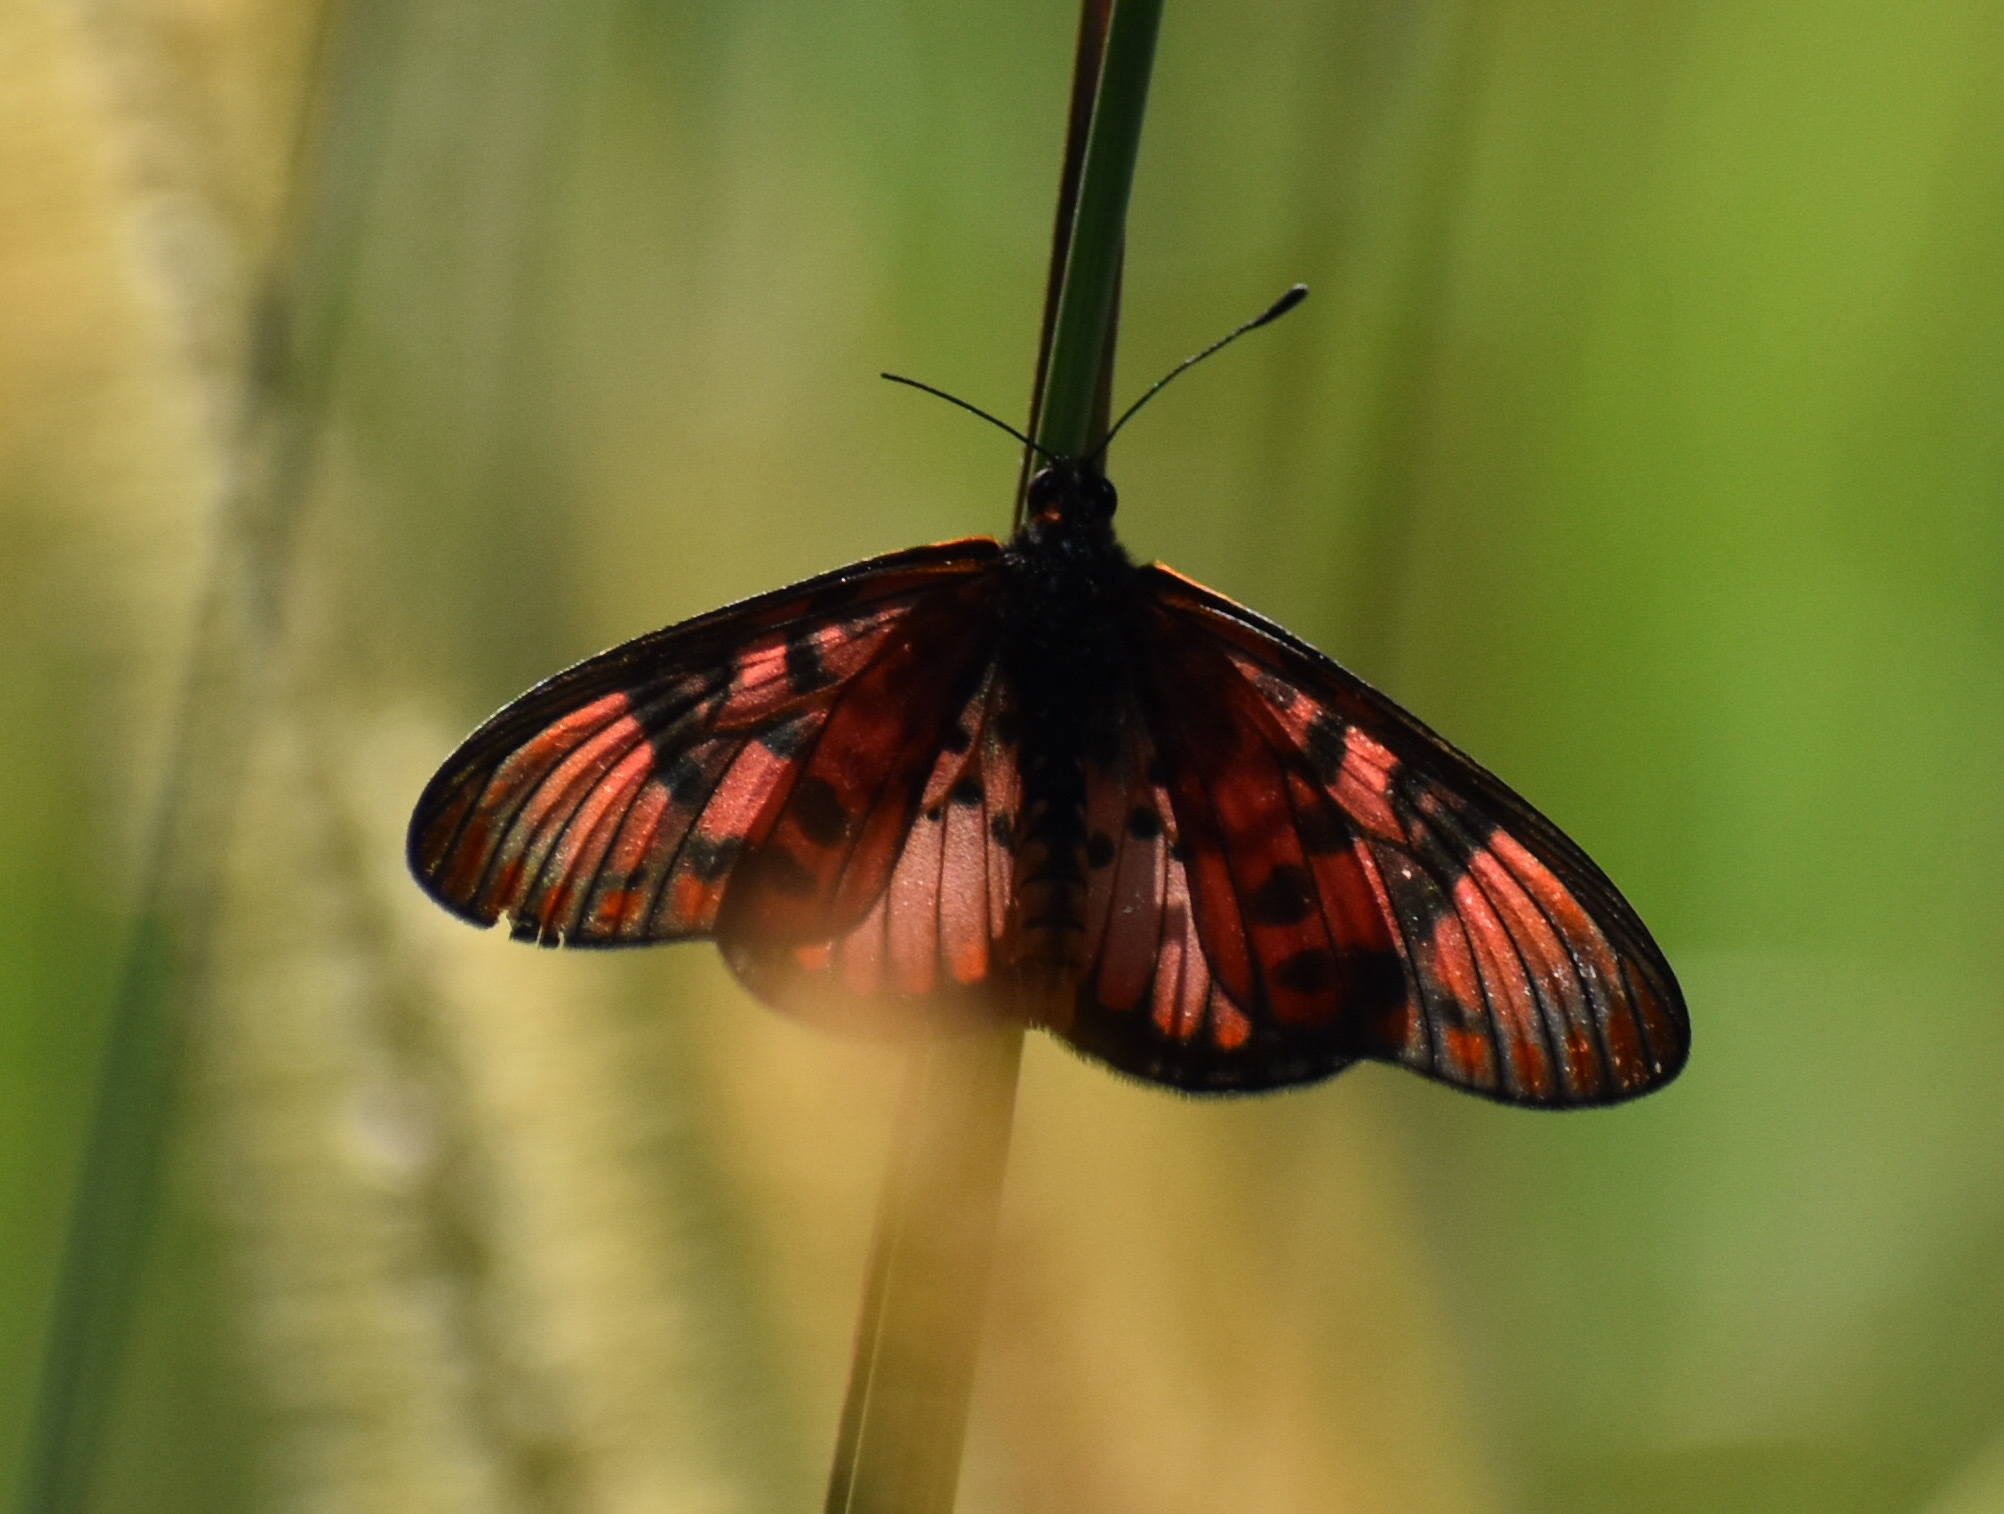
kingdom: Animalia
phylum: Arthropoda
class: Insecta
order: Lepidoptera
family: Nymphalidae
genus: Rubraea
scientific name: Rubraea
